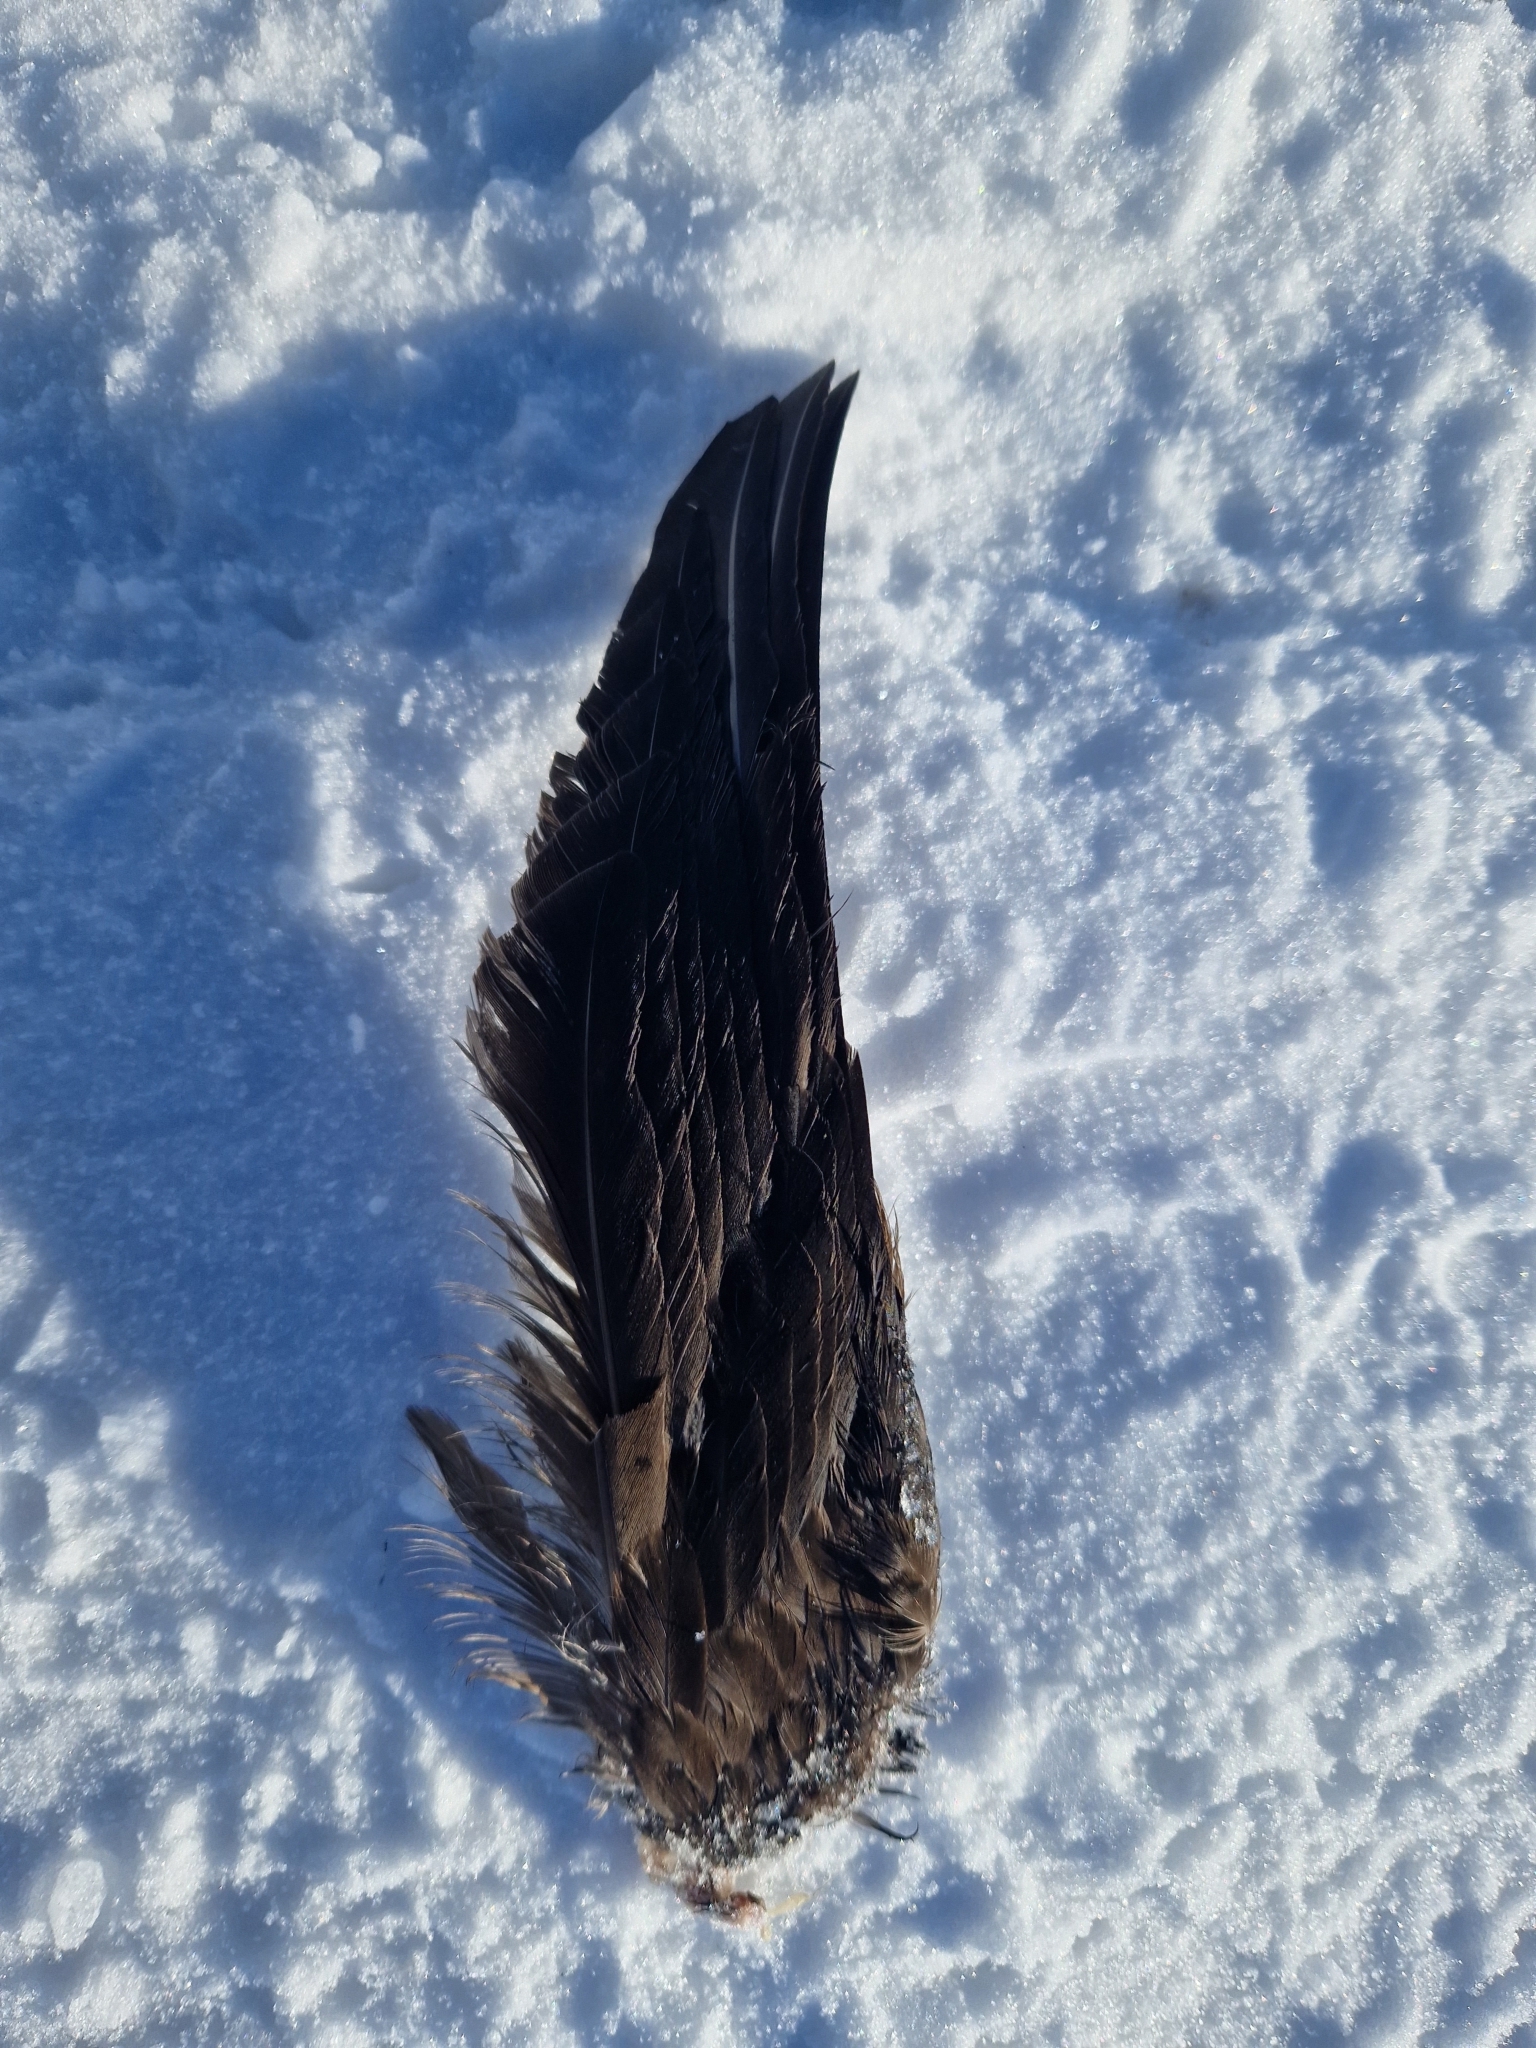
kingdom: Animalia
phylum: Chordata
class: Aves
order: Passeriformes
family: Corvidae
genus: Corvus
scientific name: Corvus corax
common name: Common raven
